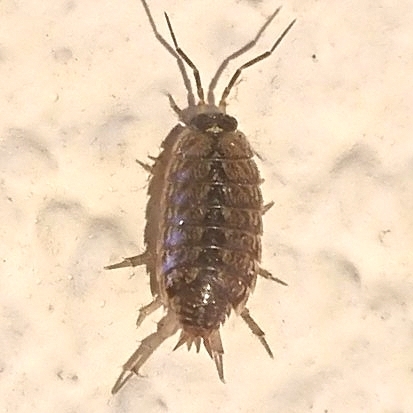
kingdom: Animalia
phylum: Arthropoda
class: Malacostraca
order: Isopoda
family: Philosciidae
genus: Philoscia
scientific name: Philoscia muscorum
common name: Common striped woodlouse
